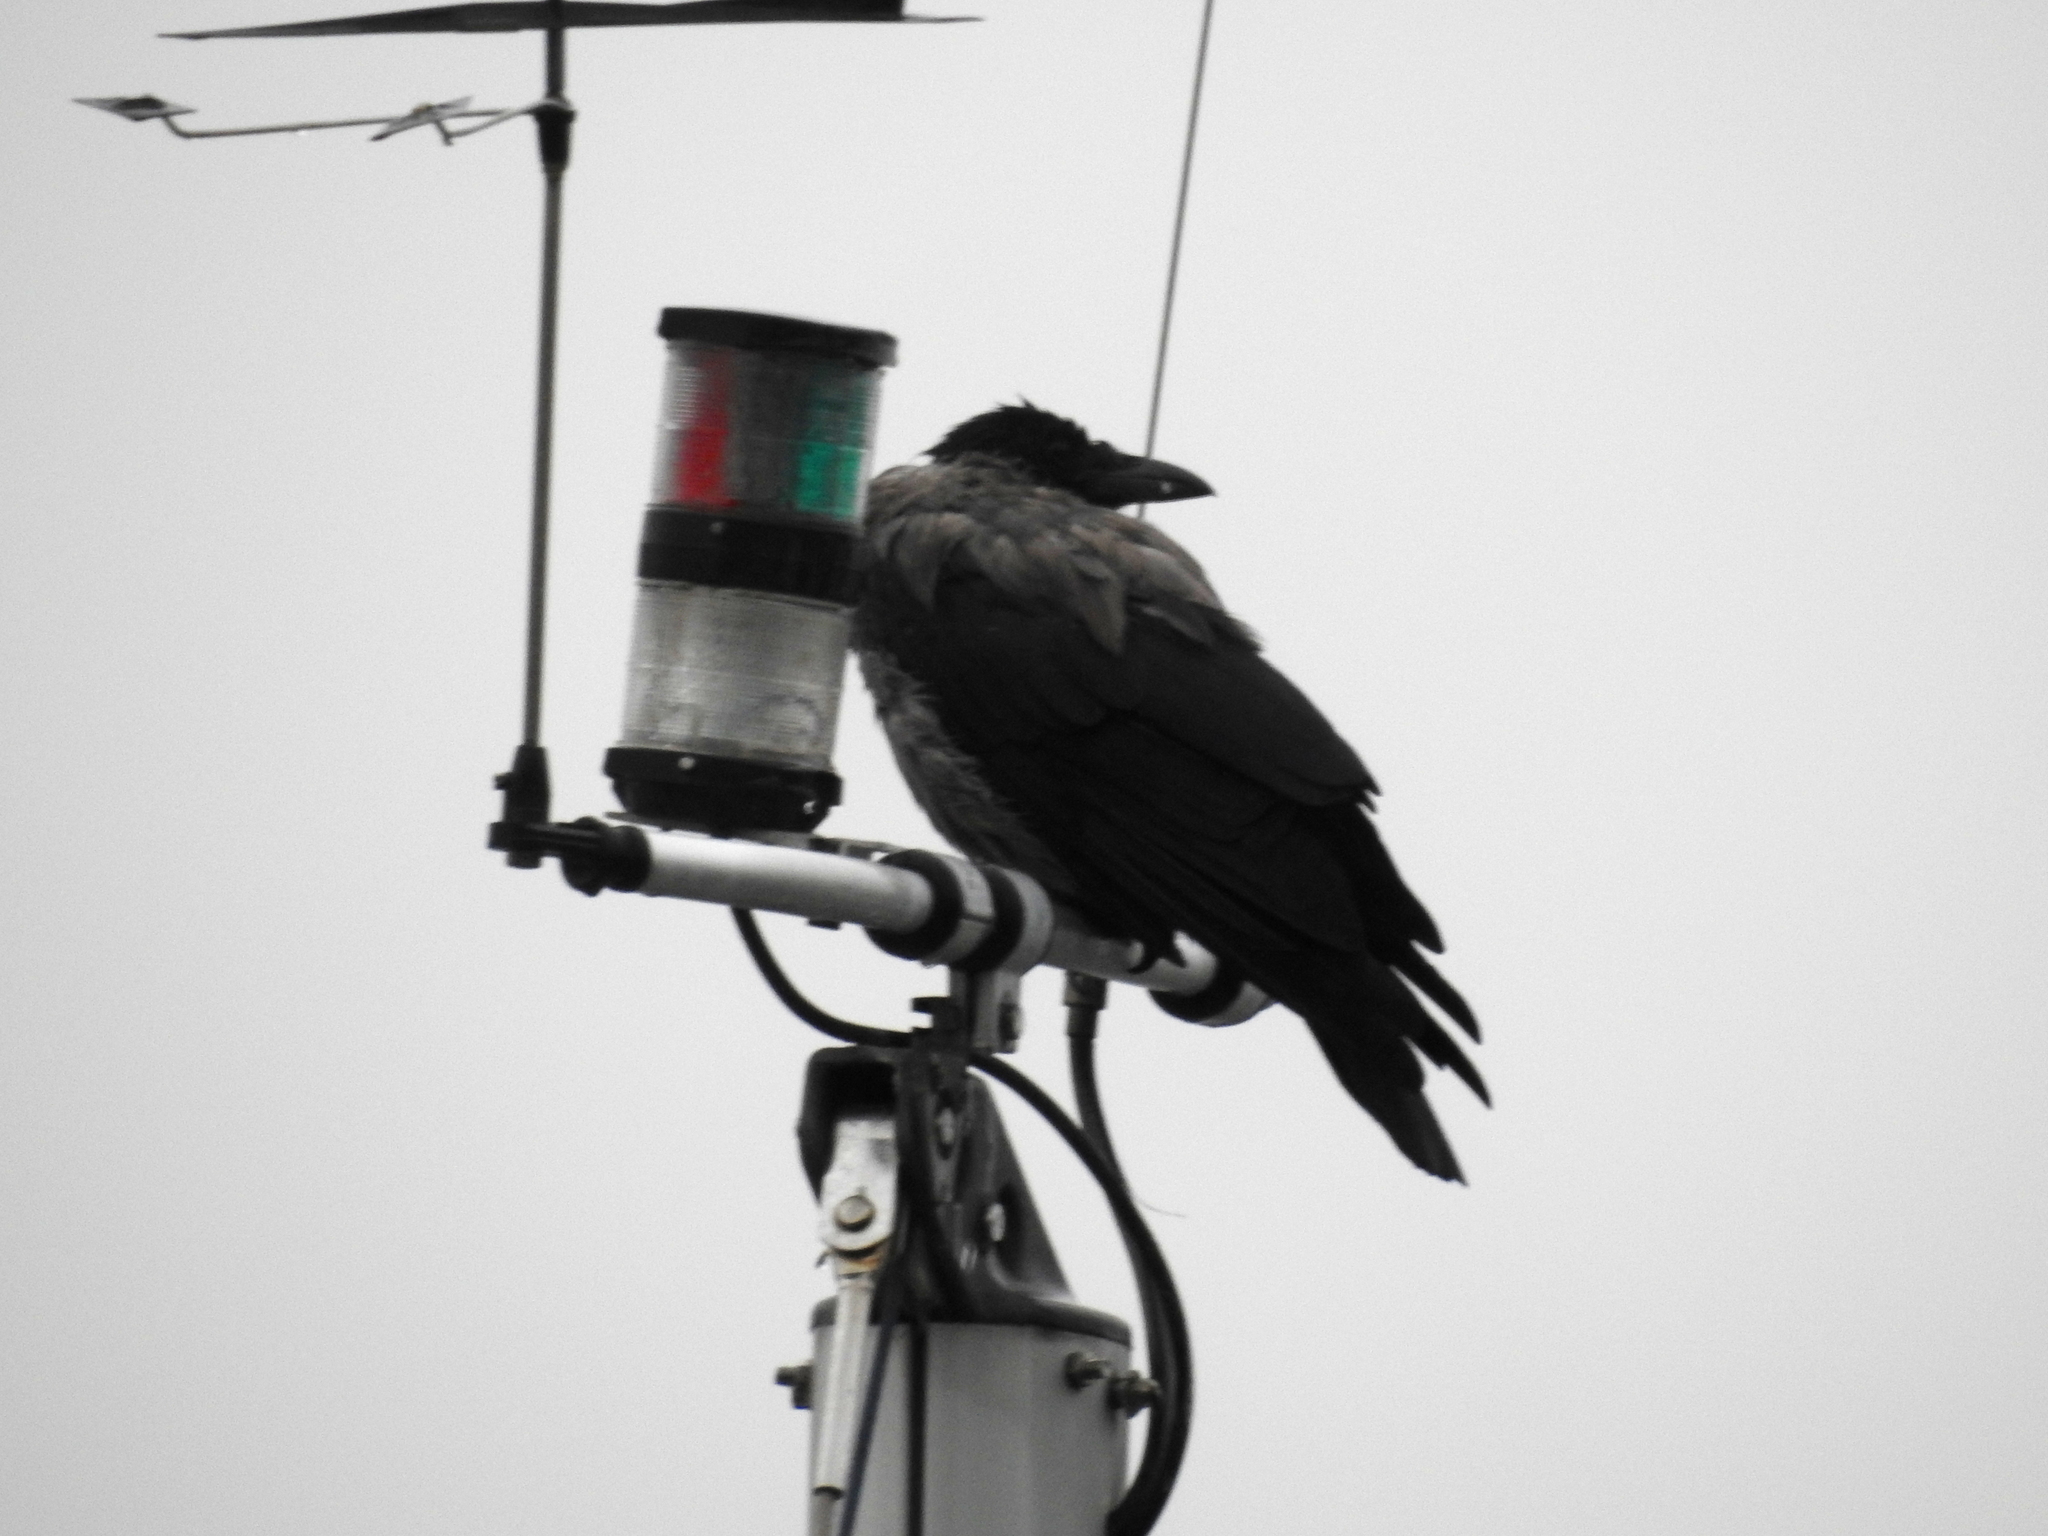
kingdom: Animalia
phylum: Chordata
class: Aves
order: Passeriformes
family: Corvidae
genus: Corvus
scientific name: Corvus cornix
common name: Hooded crow
